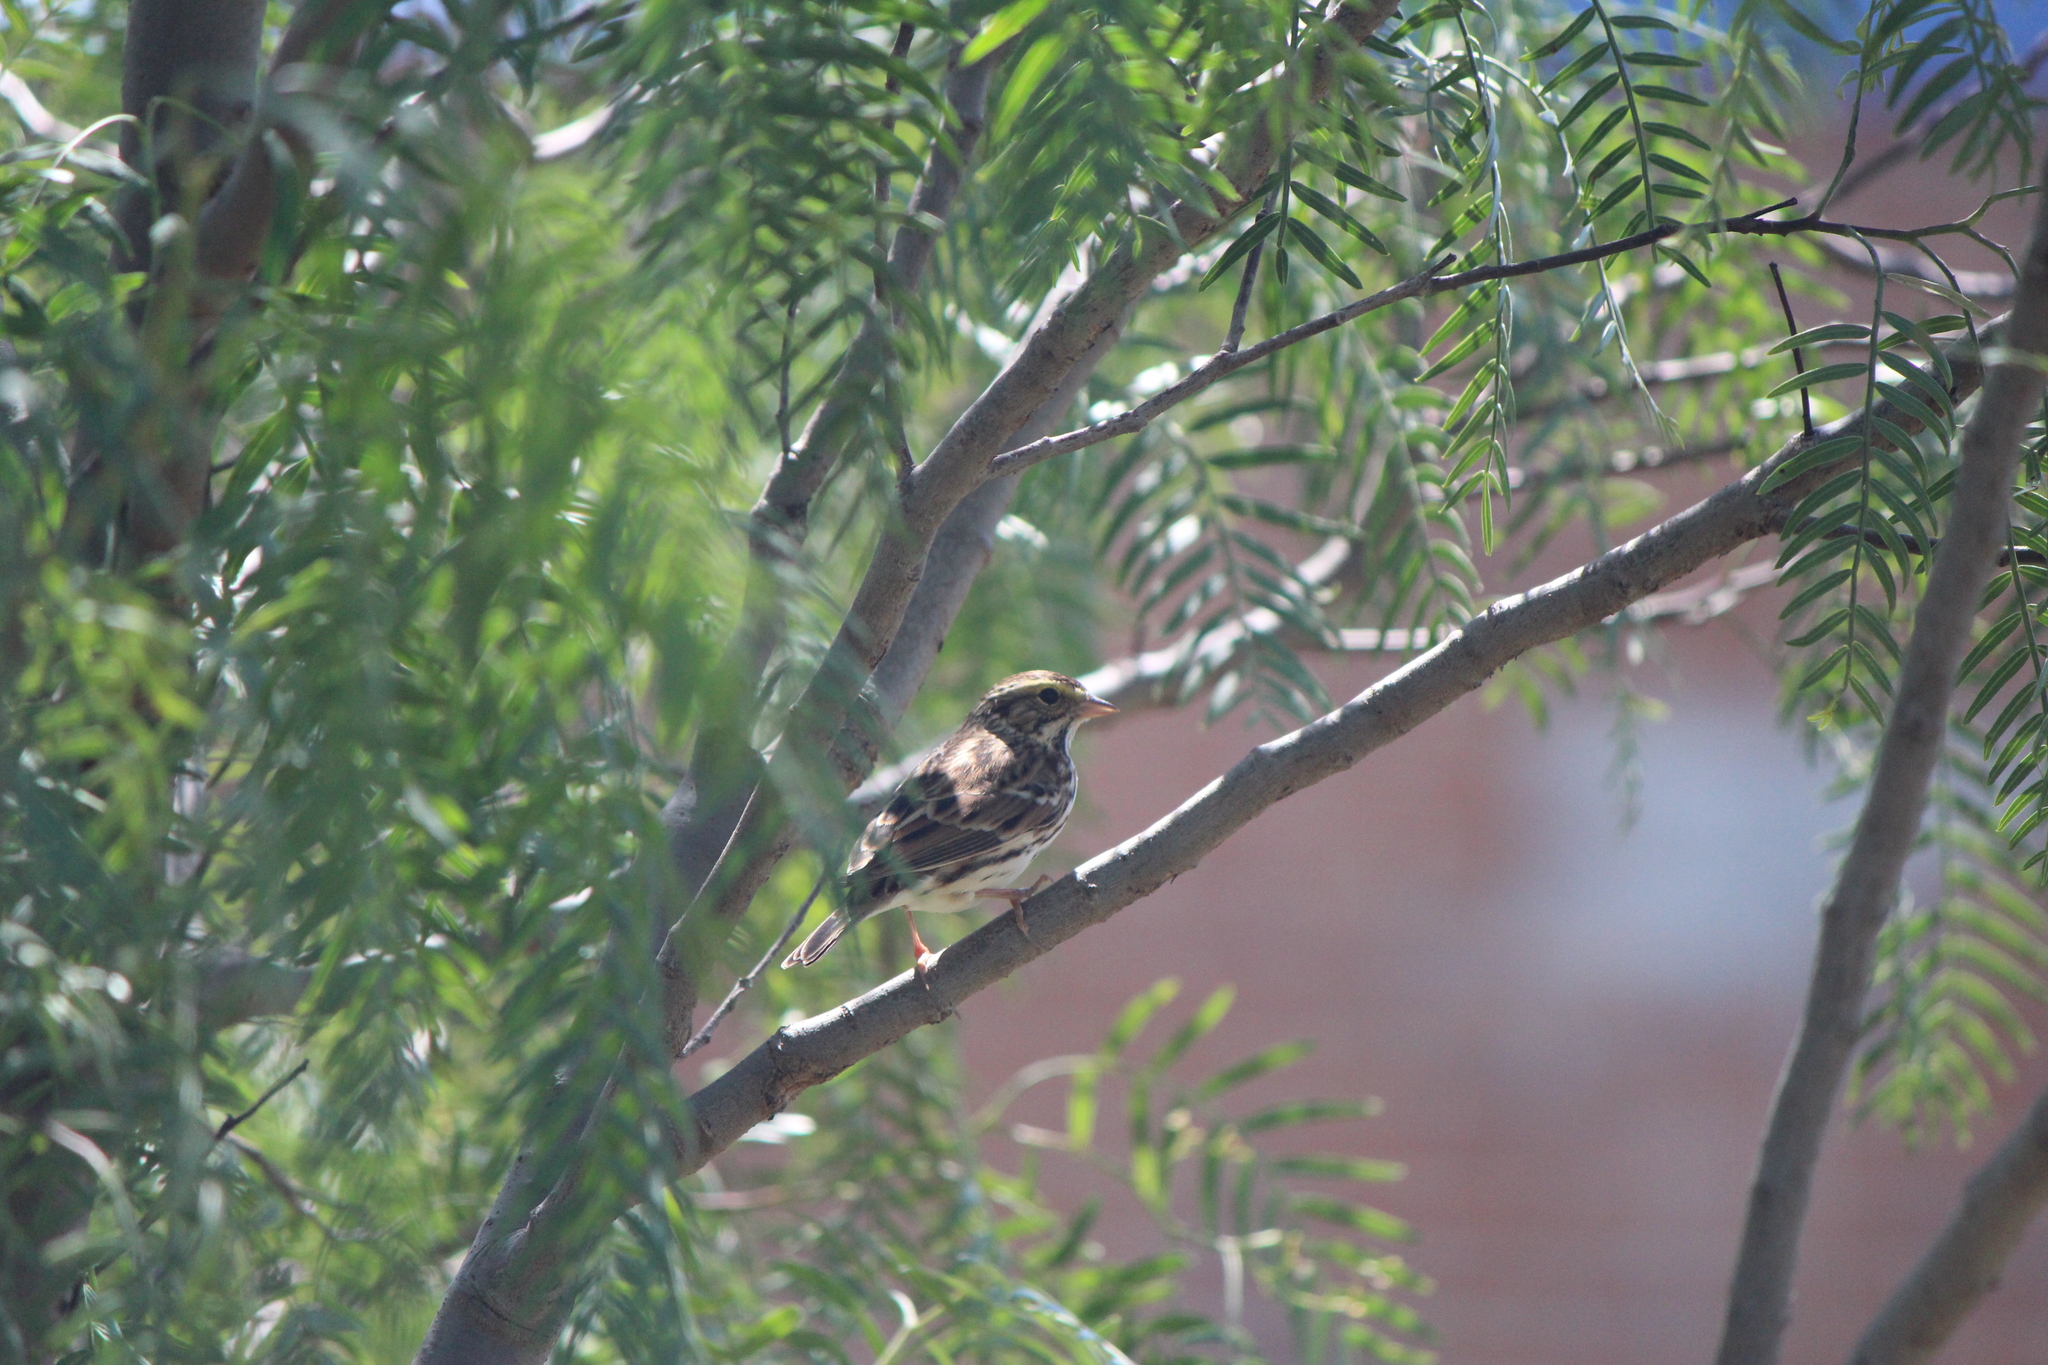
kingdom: Animalia
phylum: Chordata
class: Aves
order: Passeriformes
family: Passerellidae
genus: Passerculus
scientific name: Passerculus sandwichensis
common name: Savannah sparrow
